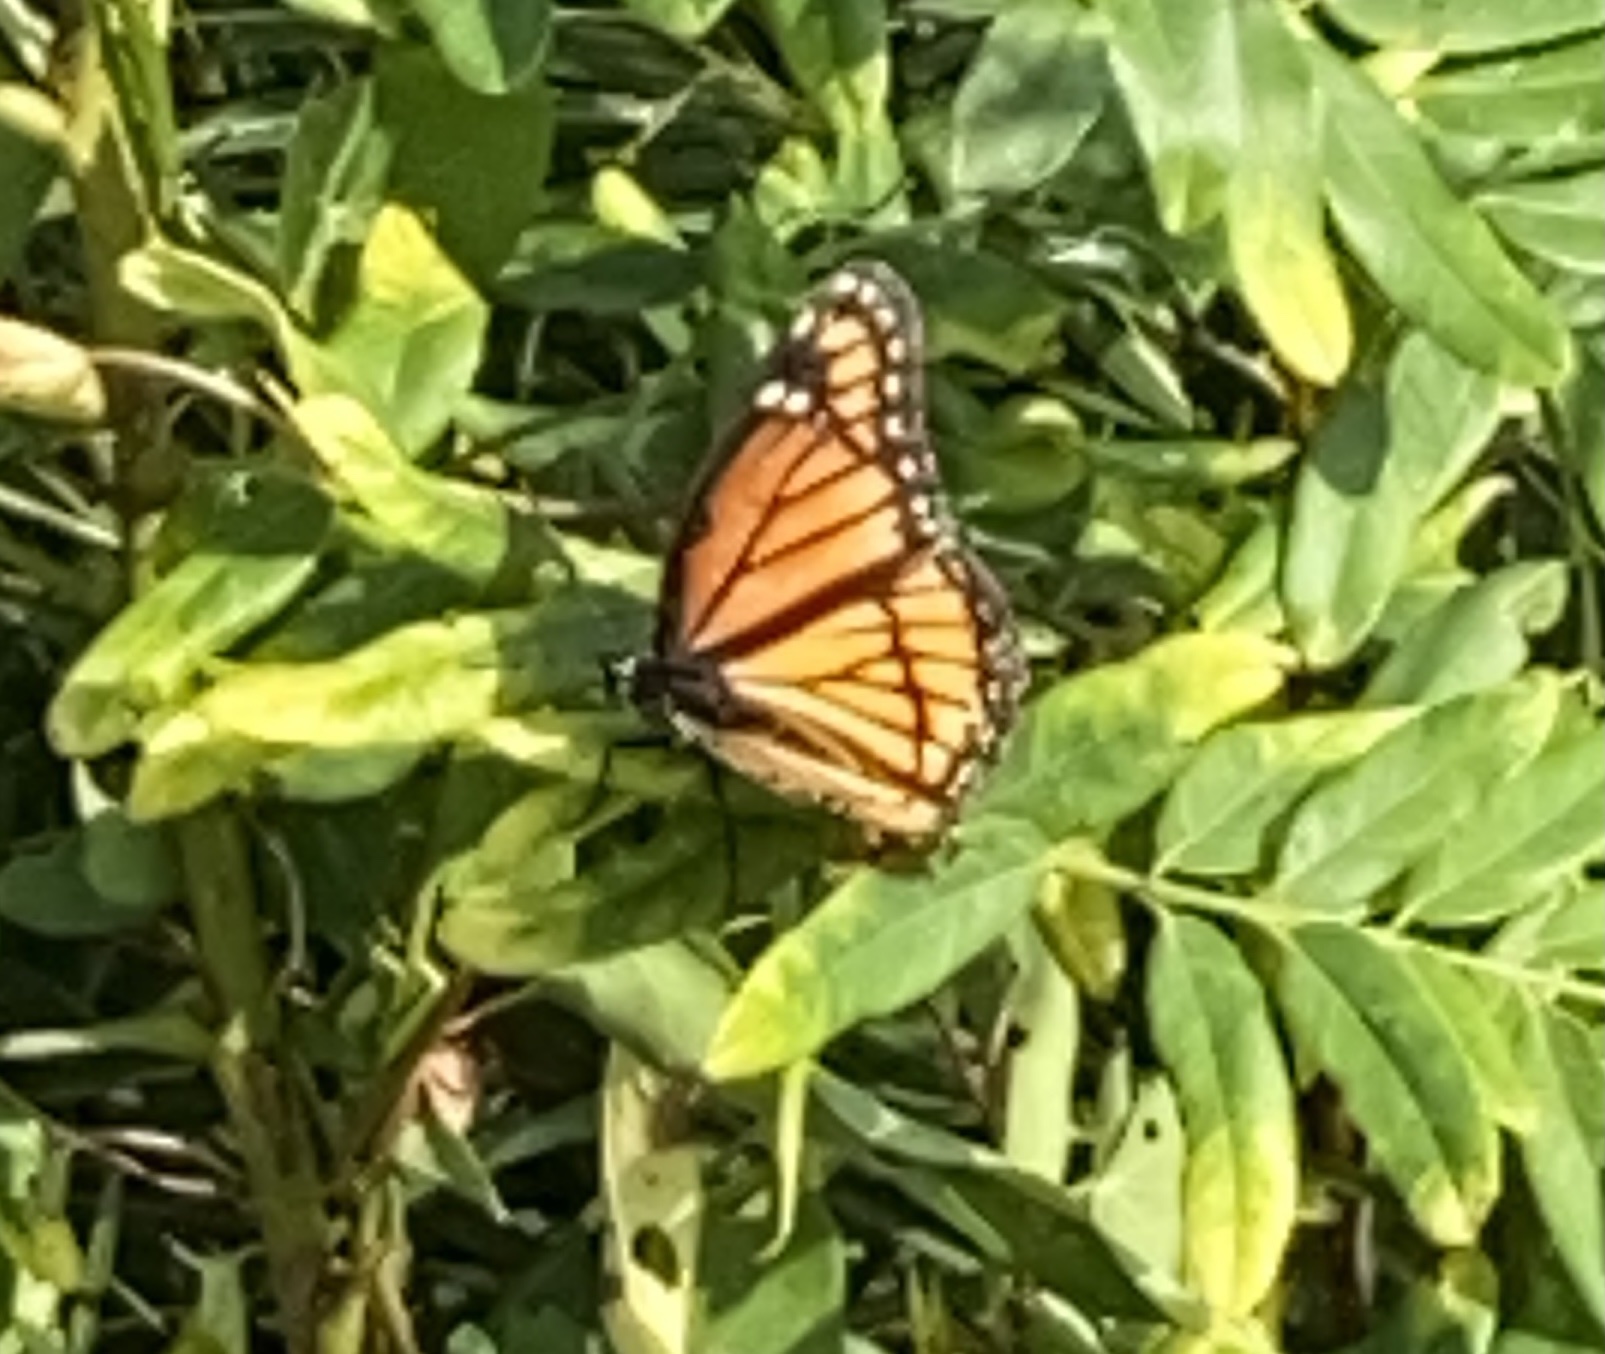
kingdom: Animalia
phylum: Arthropoda
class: Insecta
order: Lepidoptera
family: Nymphalidae
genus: Limenitis
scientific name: Limenitis archippus
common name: Viceroy
